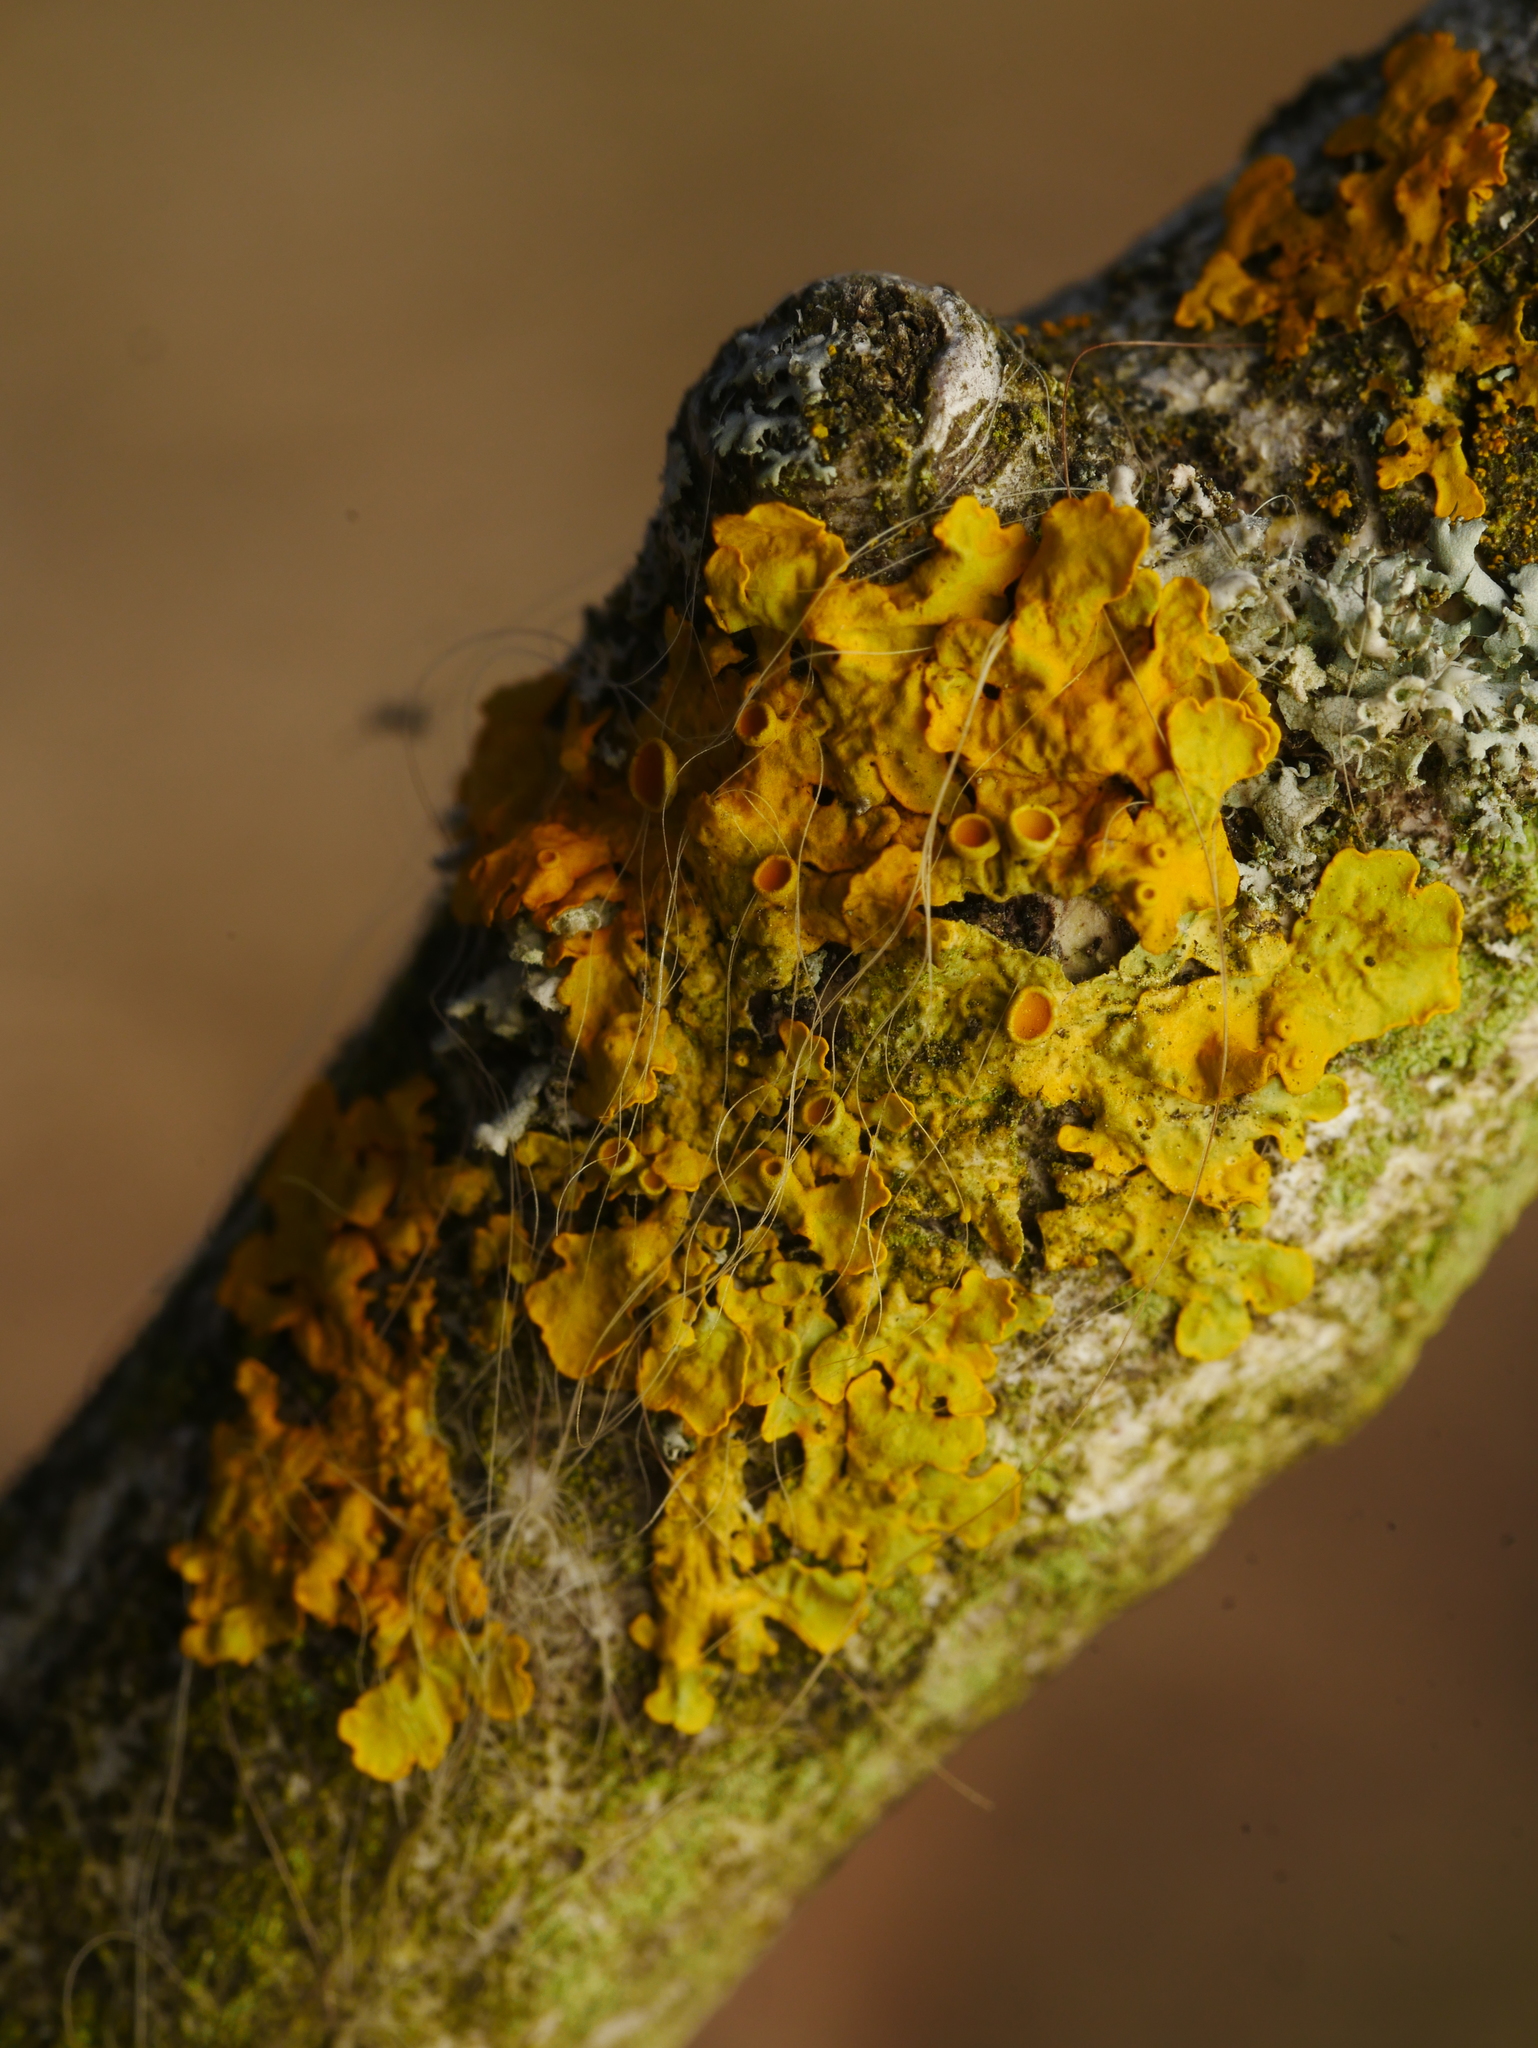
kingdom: Fungi
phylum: Ascomycota
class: Lecanoromycetes
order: Teloschistales
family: Teloschistaceae
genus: Xanthoria
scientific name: Xanthoria parietina
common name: Common orange lichen
